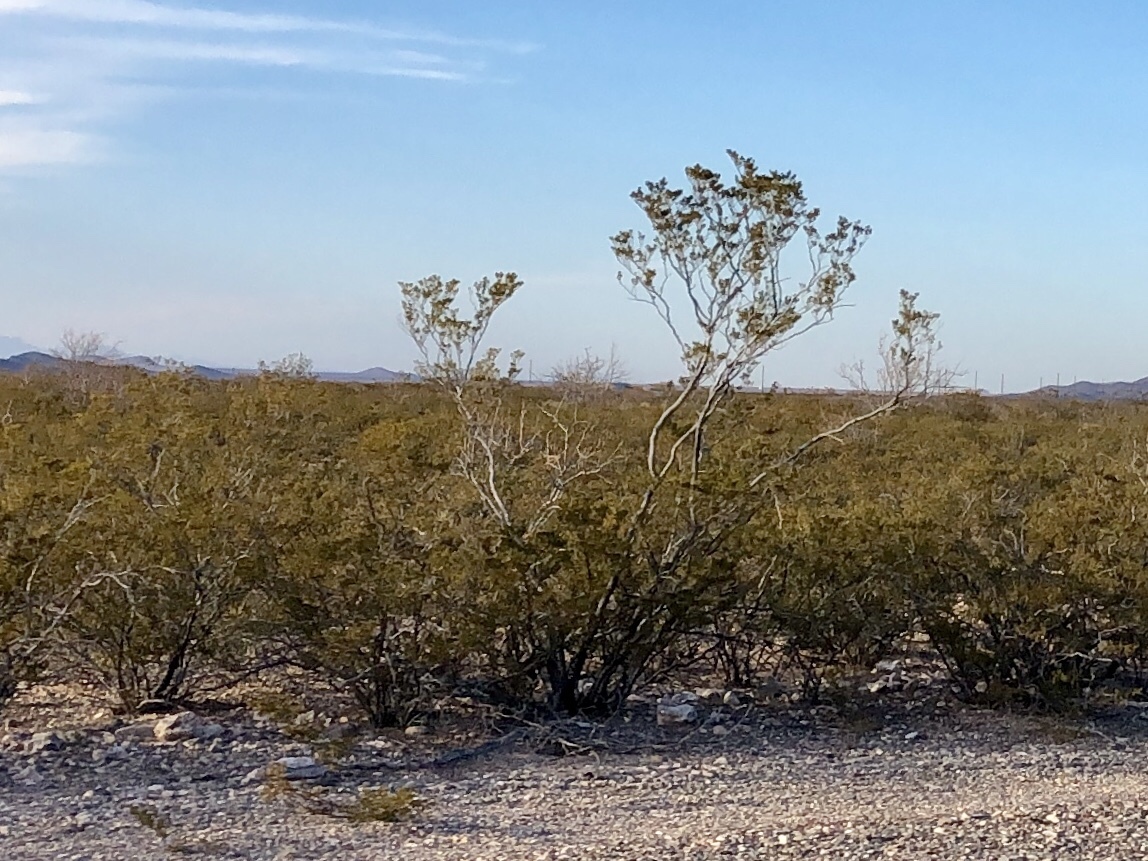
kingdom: Plantae
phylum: Tracheophyta
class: Magnoliopsida
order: Zygophyllales
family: Zygophyllaceae
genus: Larrea
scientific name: Larrea tridentata
